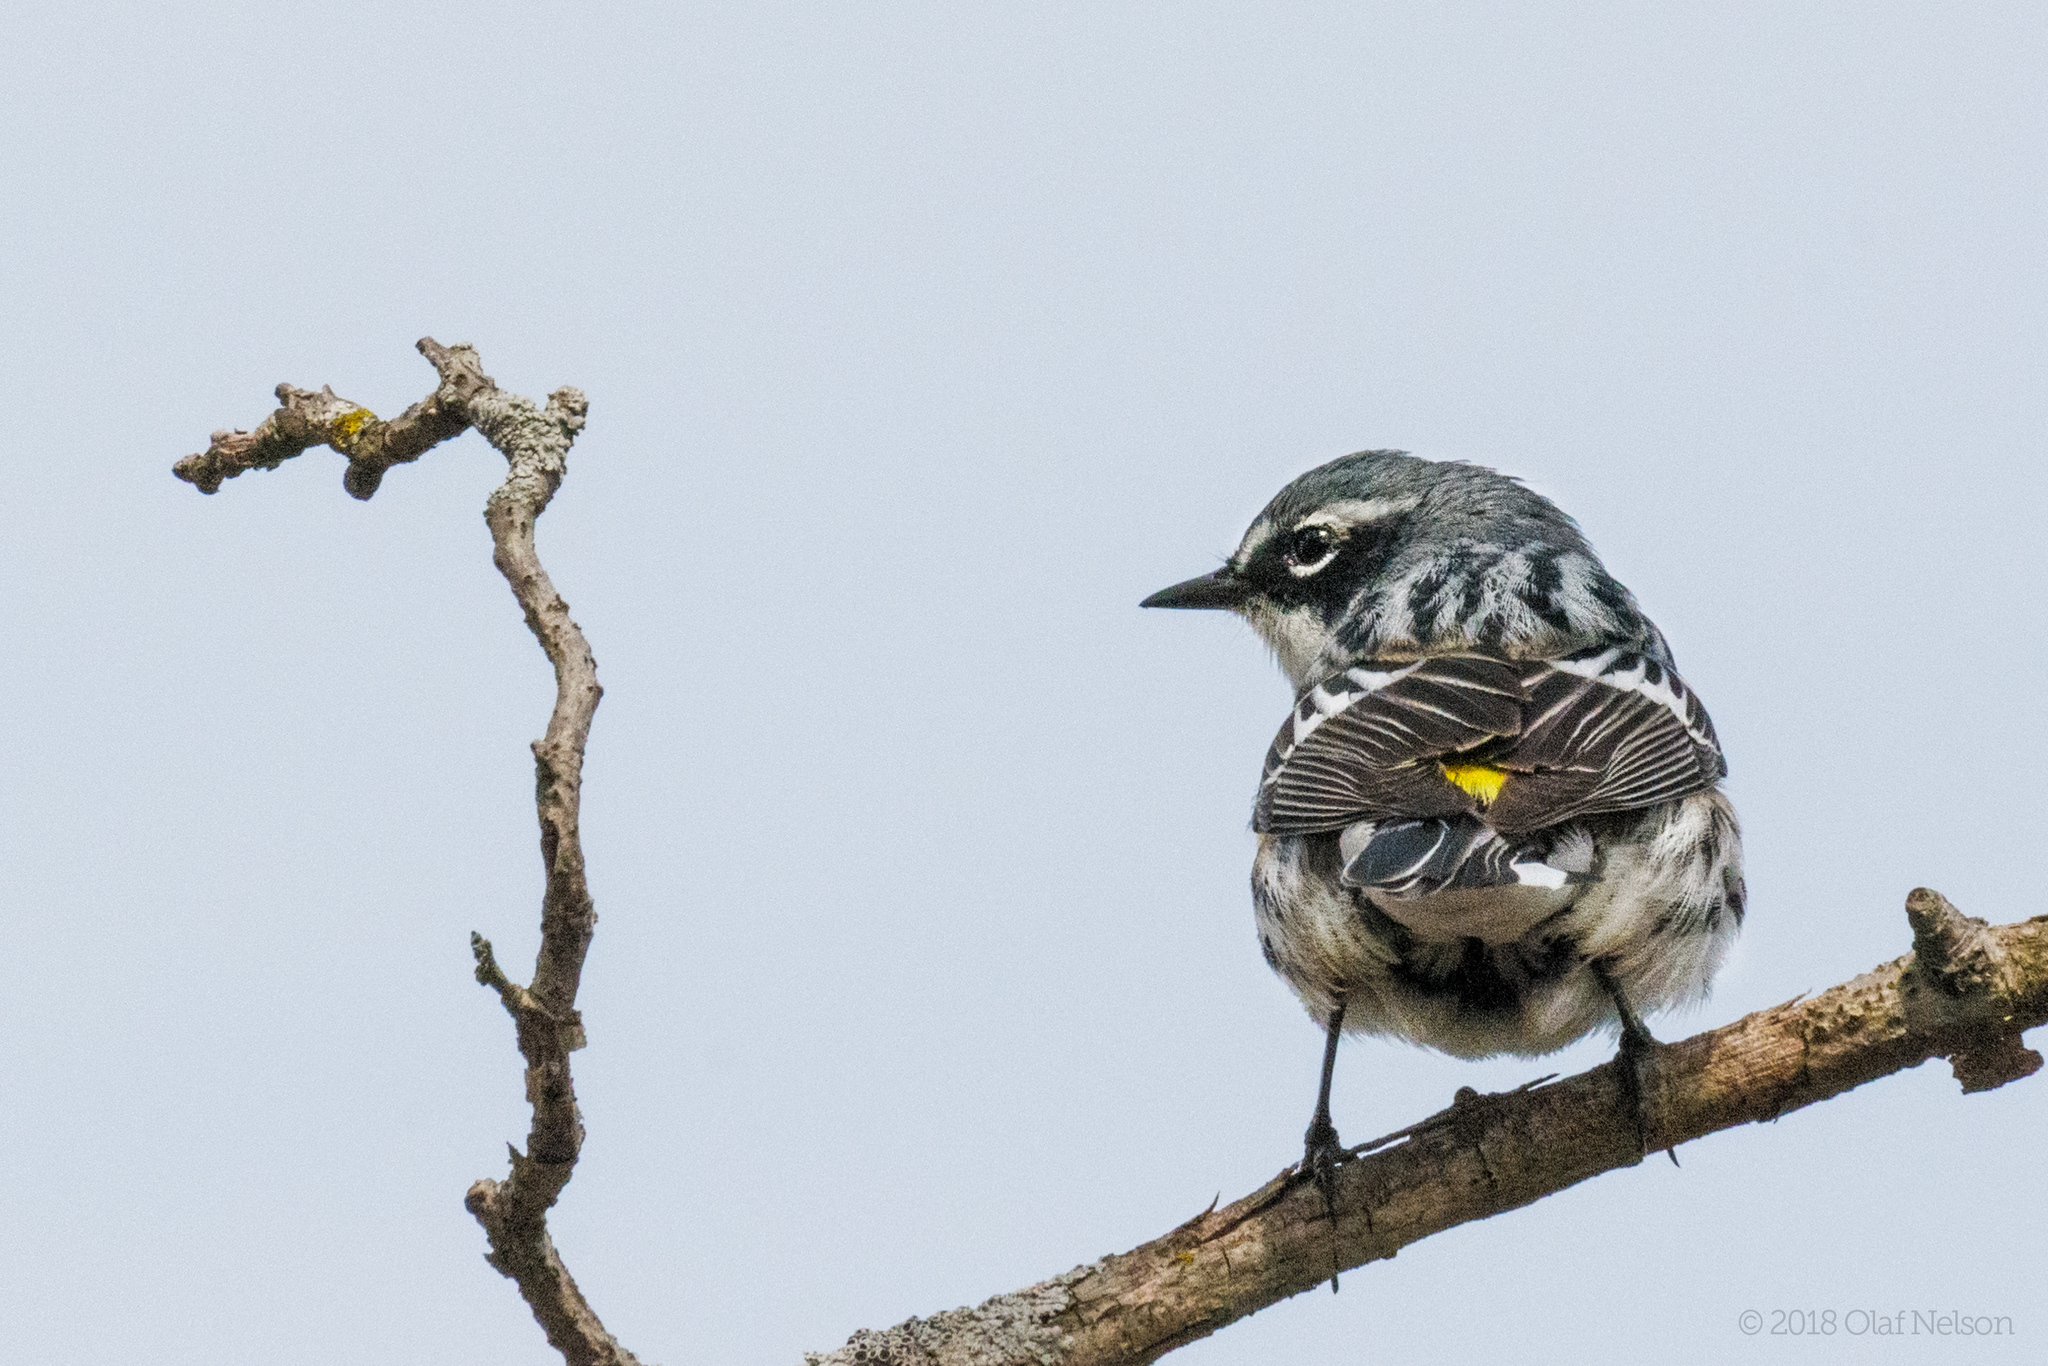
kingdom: Animalia
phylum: Chordata
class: Aves
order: Passeriformes
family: Parulidae
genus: Setophaga
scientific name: Setophaga coronata
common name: Myrtle warbler
